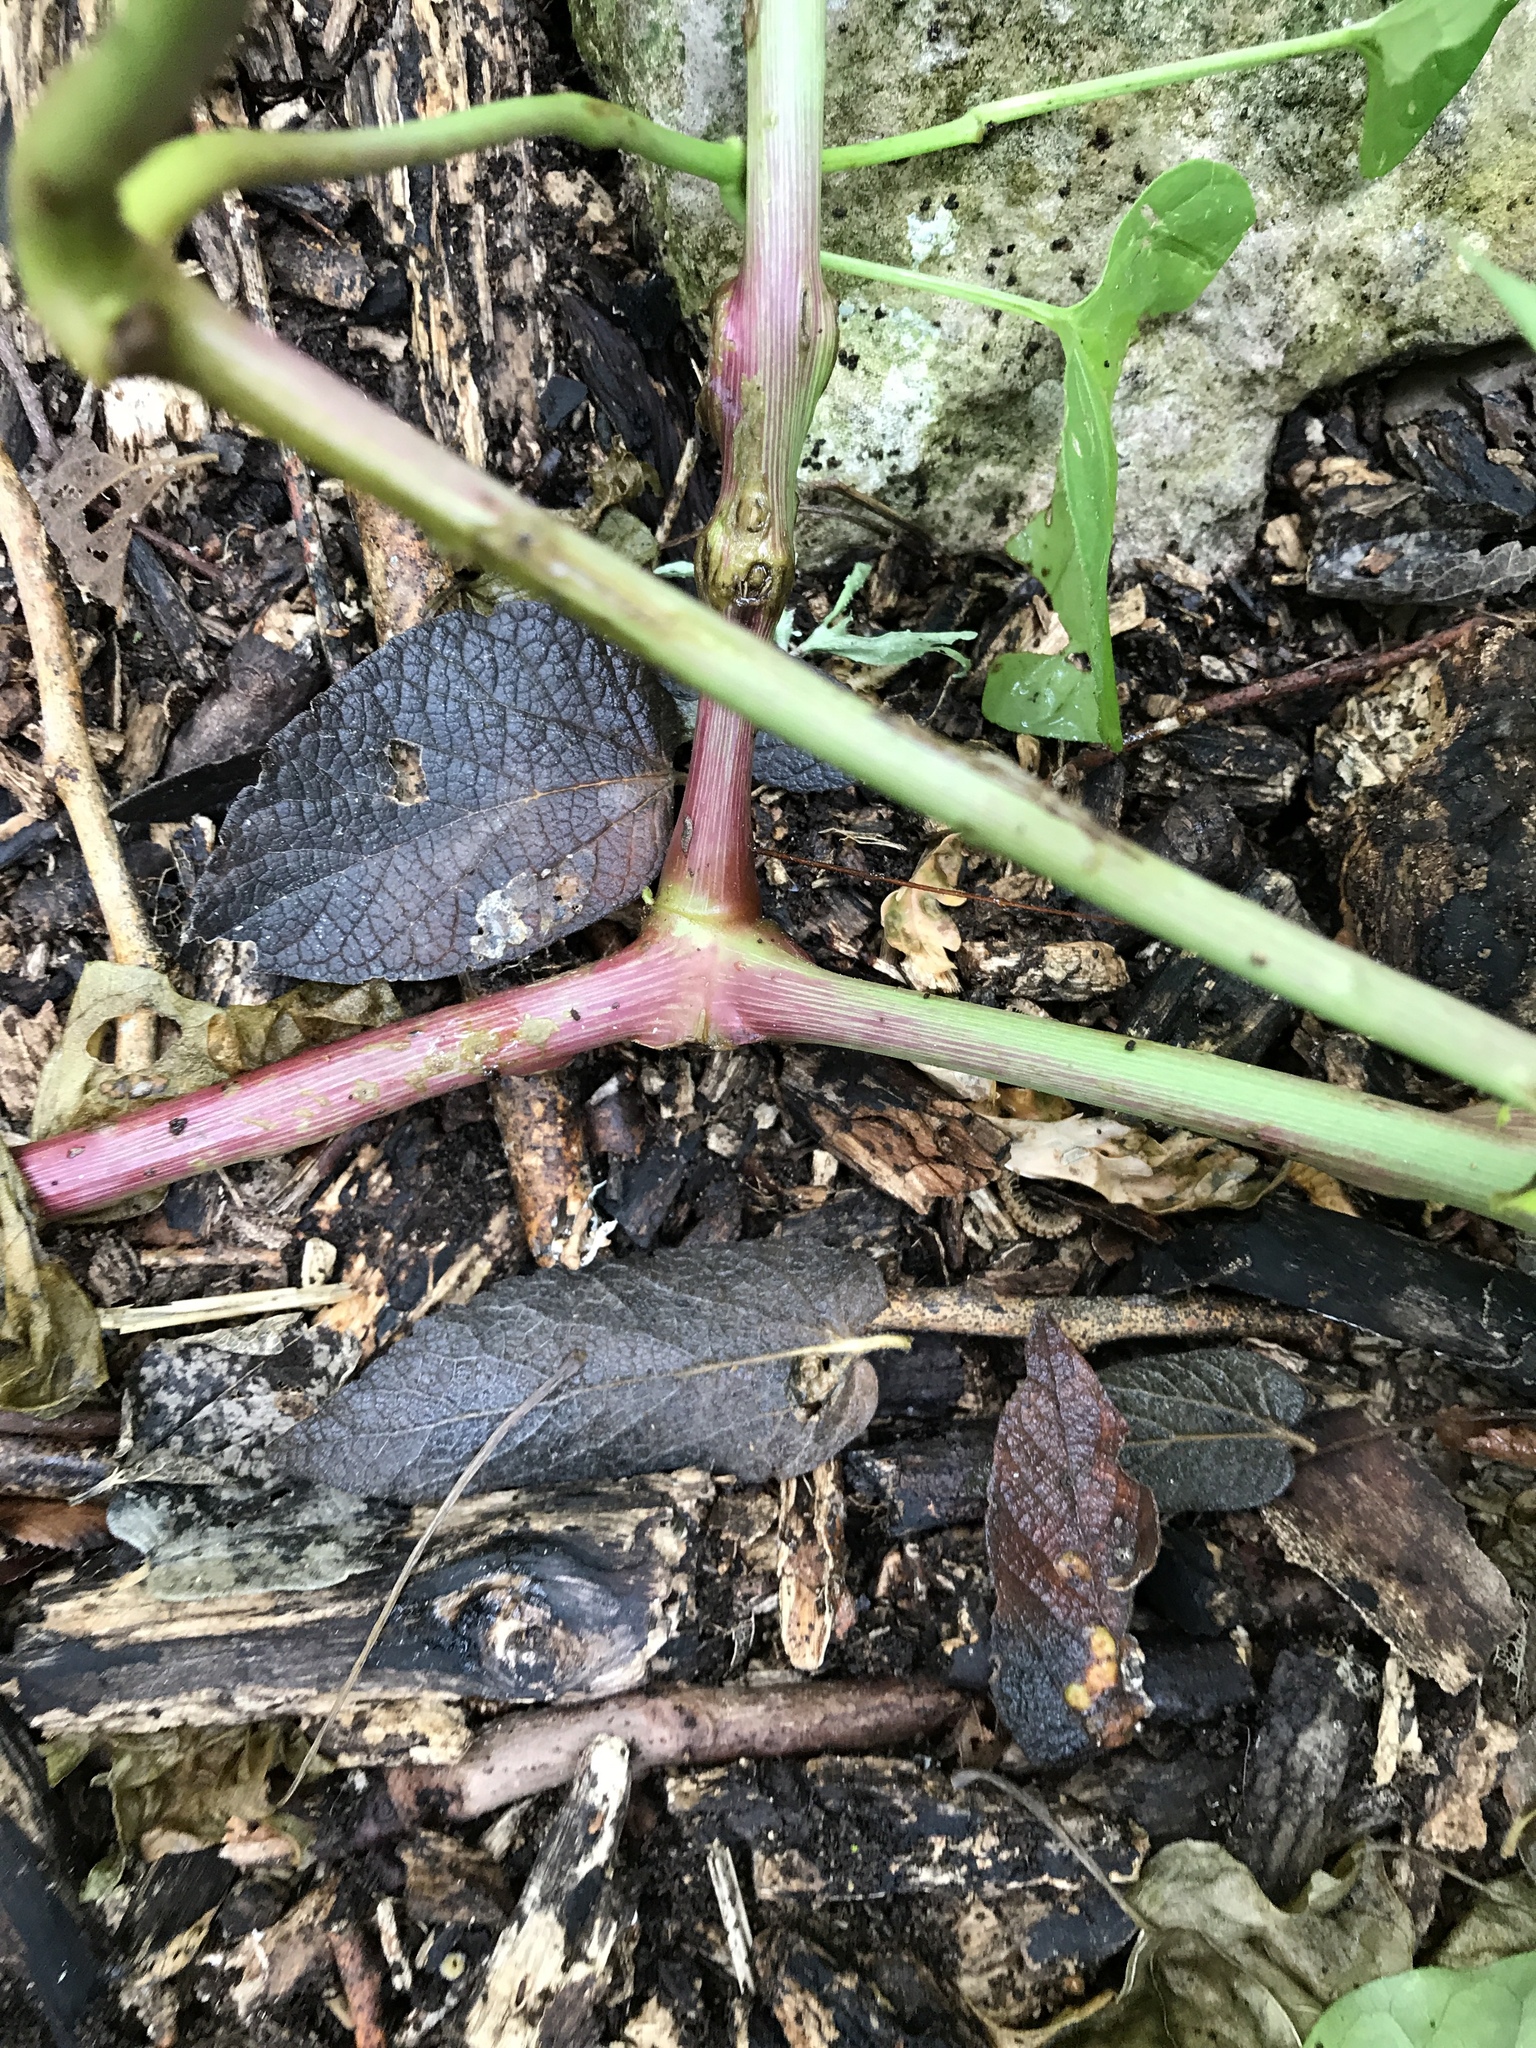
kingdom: Plantae
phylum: Tracheophyta
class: Magnoliopsida
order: Caryophyllales
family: Nyctaginaceae
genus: Mirabilis
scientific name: Mirabilis nyctaginea
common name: Umbrella wort
